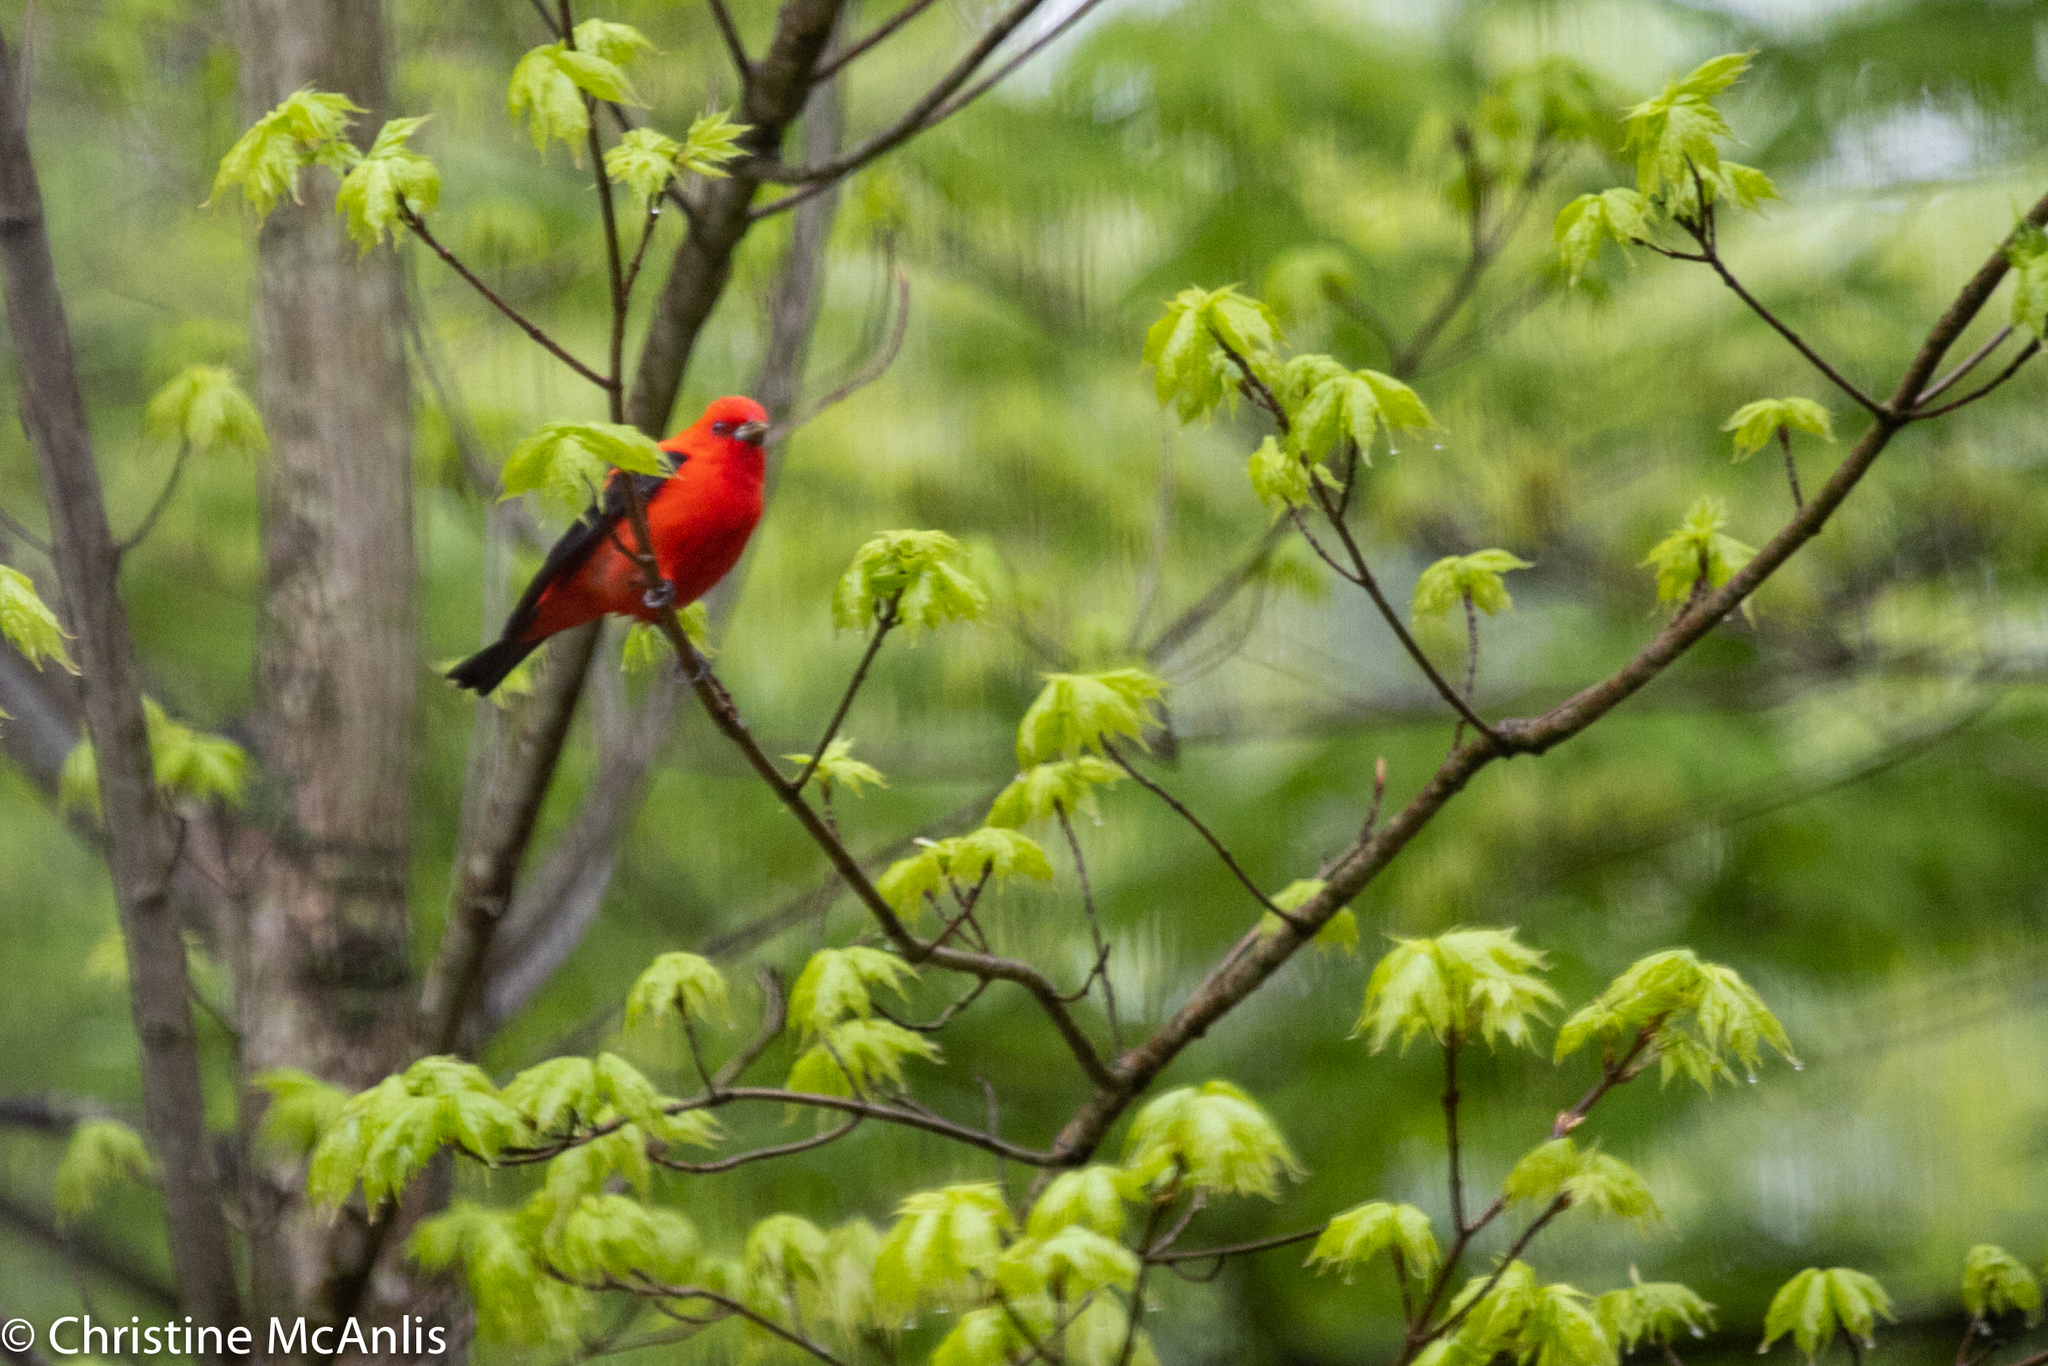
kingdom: Animalia
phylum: Chordata
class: Aves
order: Passeriformes
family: Cardinalidae
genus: Piranga
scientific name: Piranga olivacea
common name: Scarlet tanager
